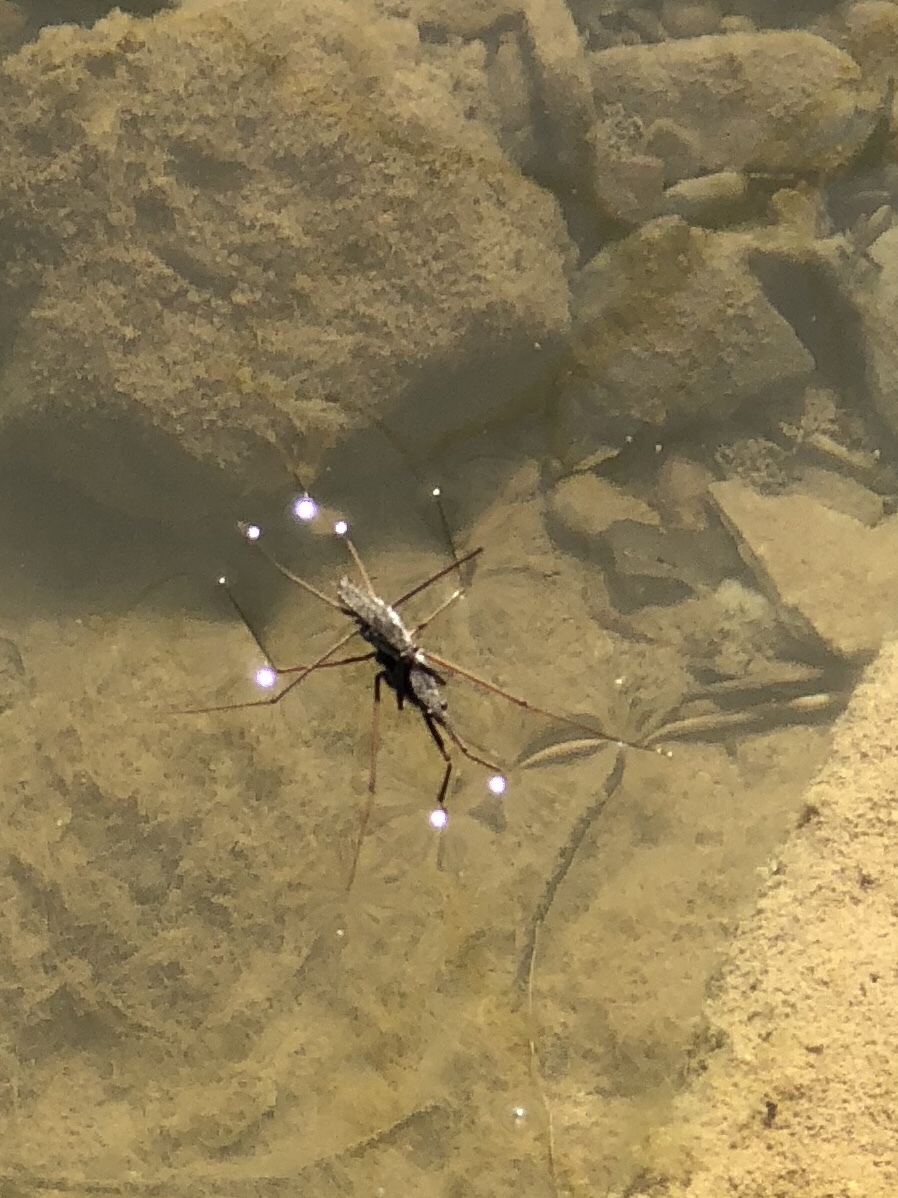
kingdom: Animalia
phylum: Arthropoda
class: Insecta
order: Hemiptera
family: Gerridae
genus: Aquarius
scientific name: Aquarius remigis
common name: Common water strider
